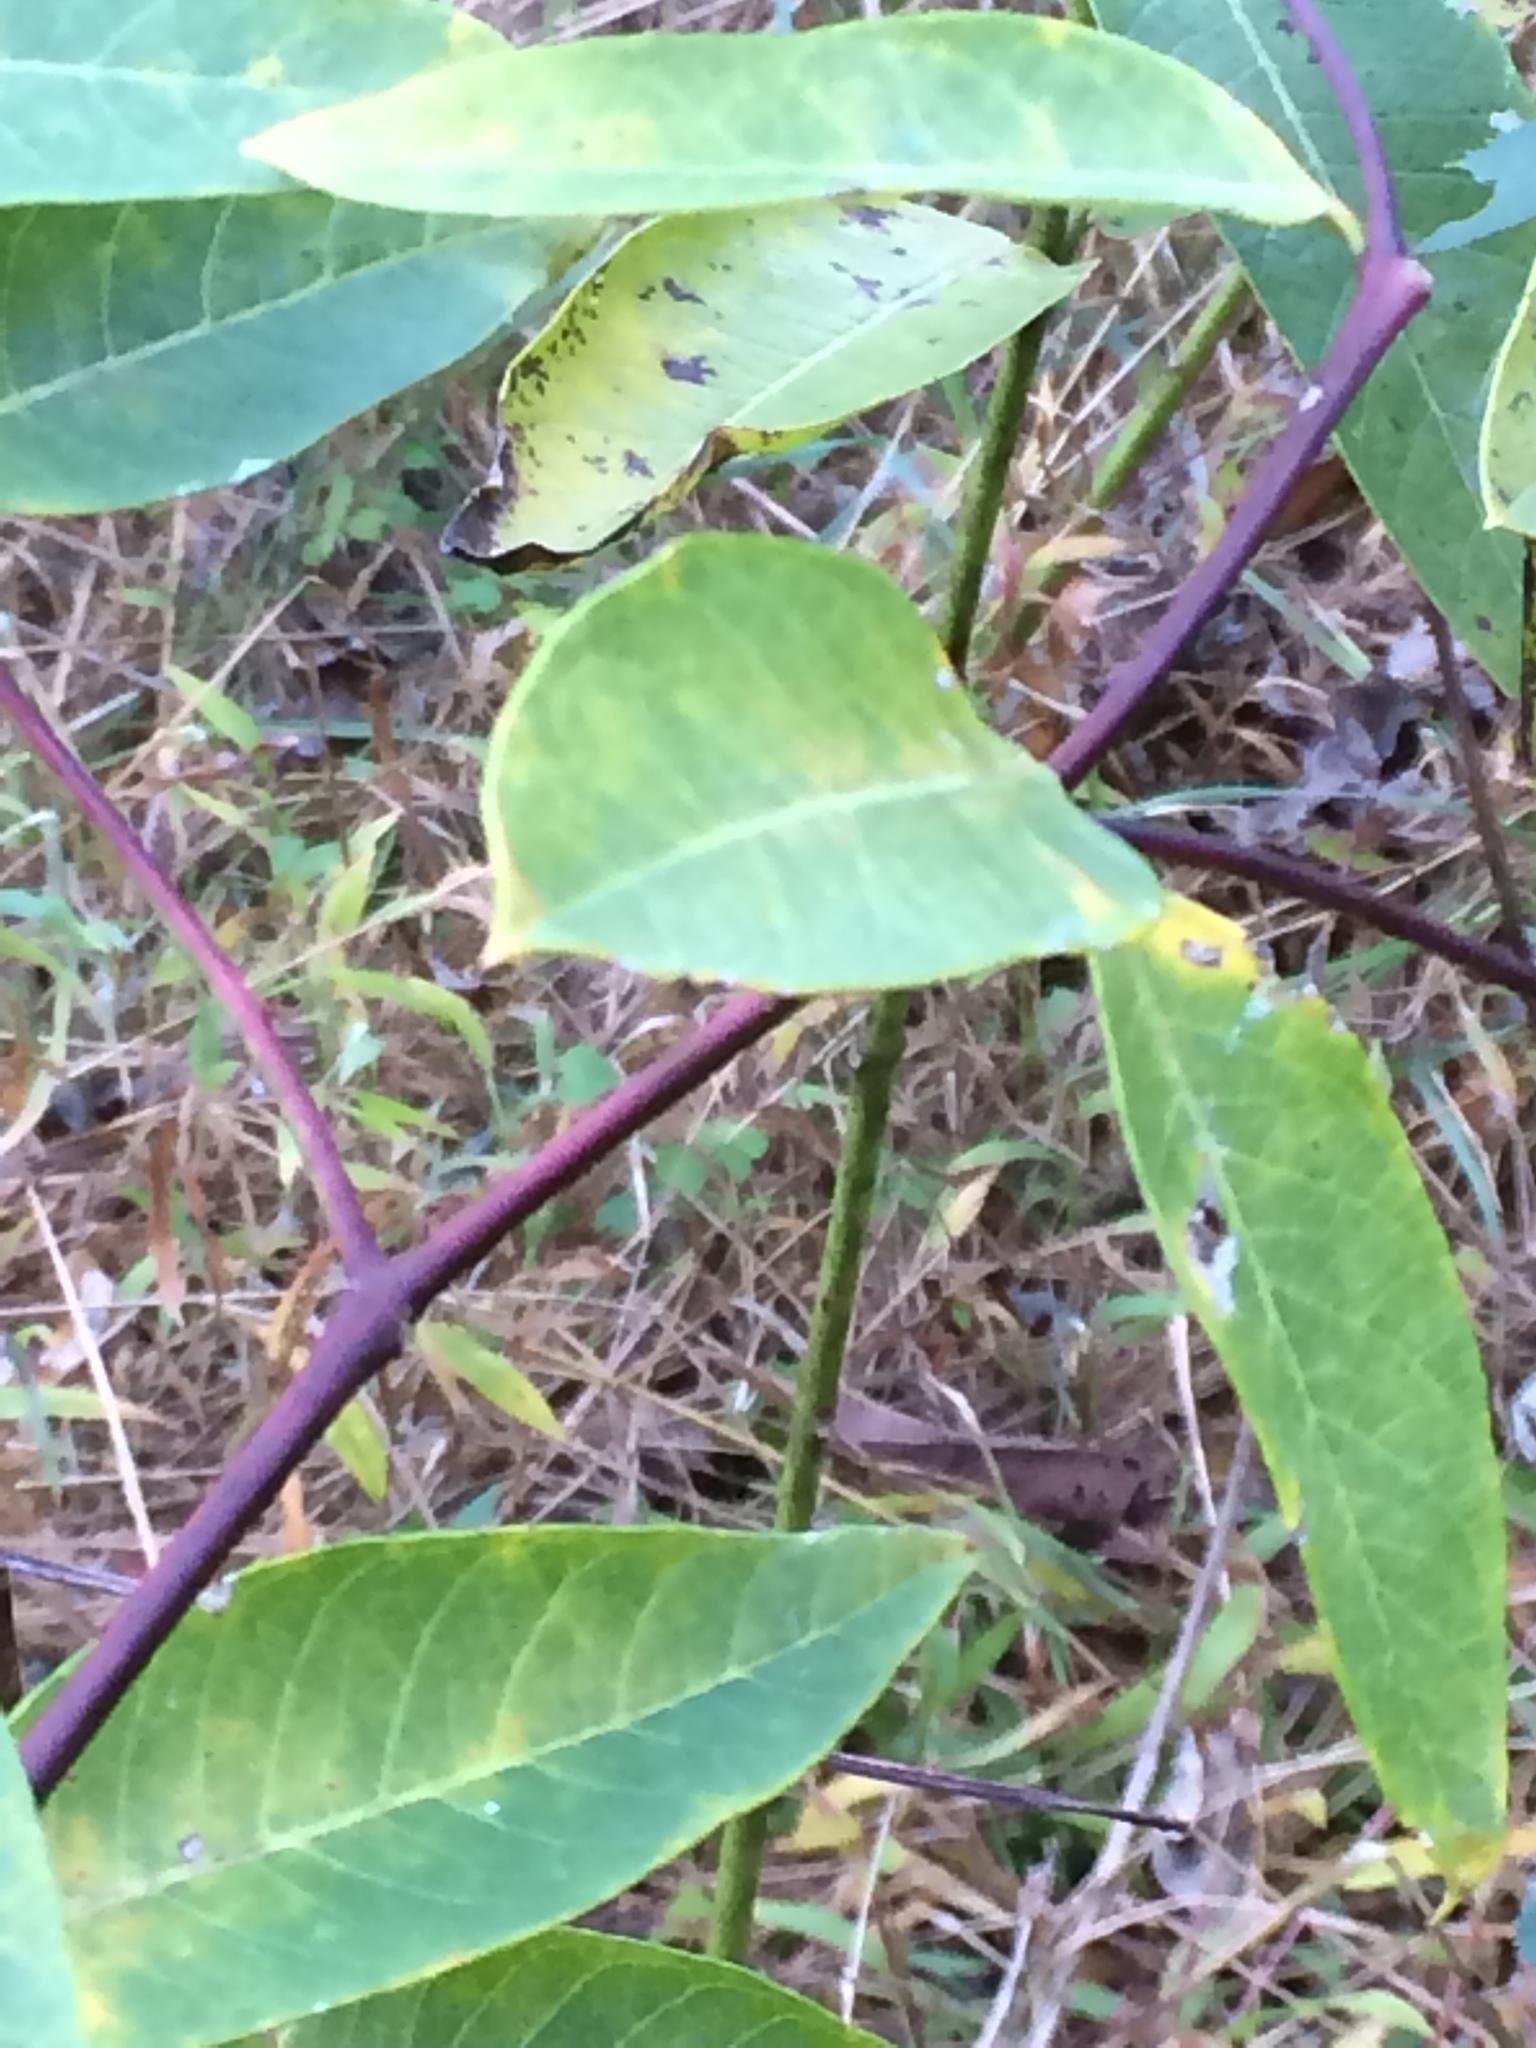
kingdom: Plantae
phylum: Tracheophyta
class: Magnoliopsida
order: Gentianales
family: Apocynaceae
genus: Apocynum
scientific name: Apocynum cannabinum
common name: Hemp dogbane
